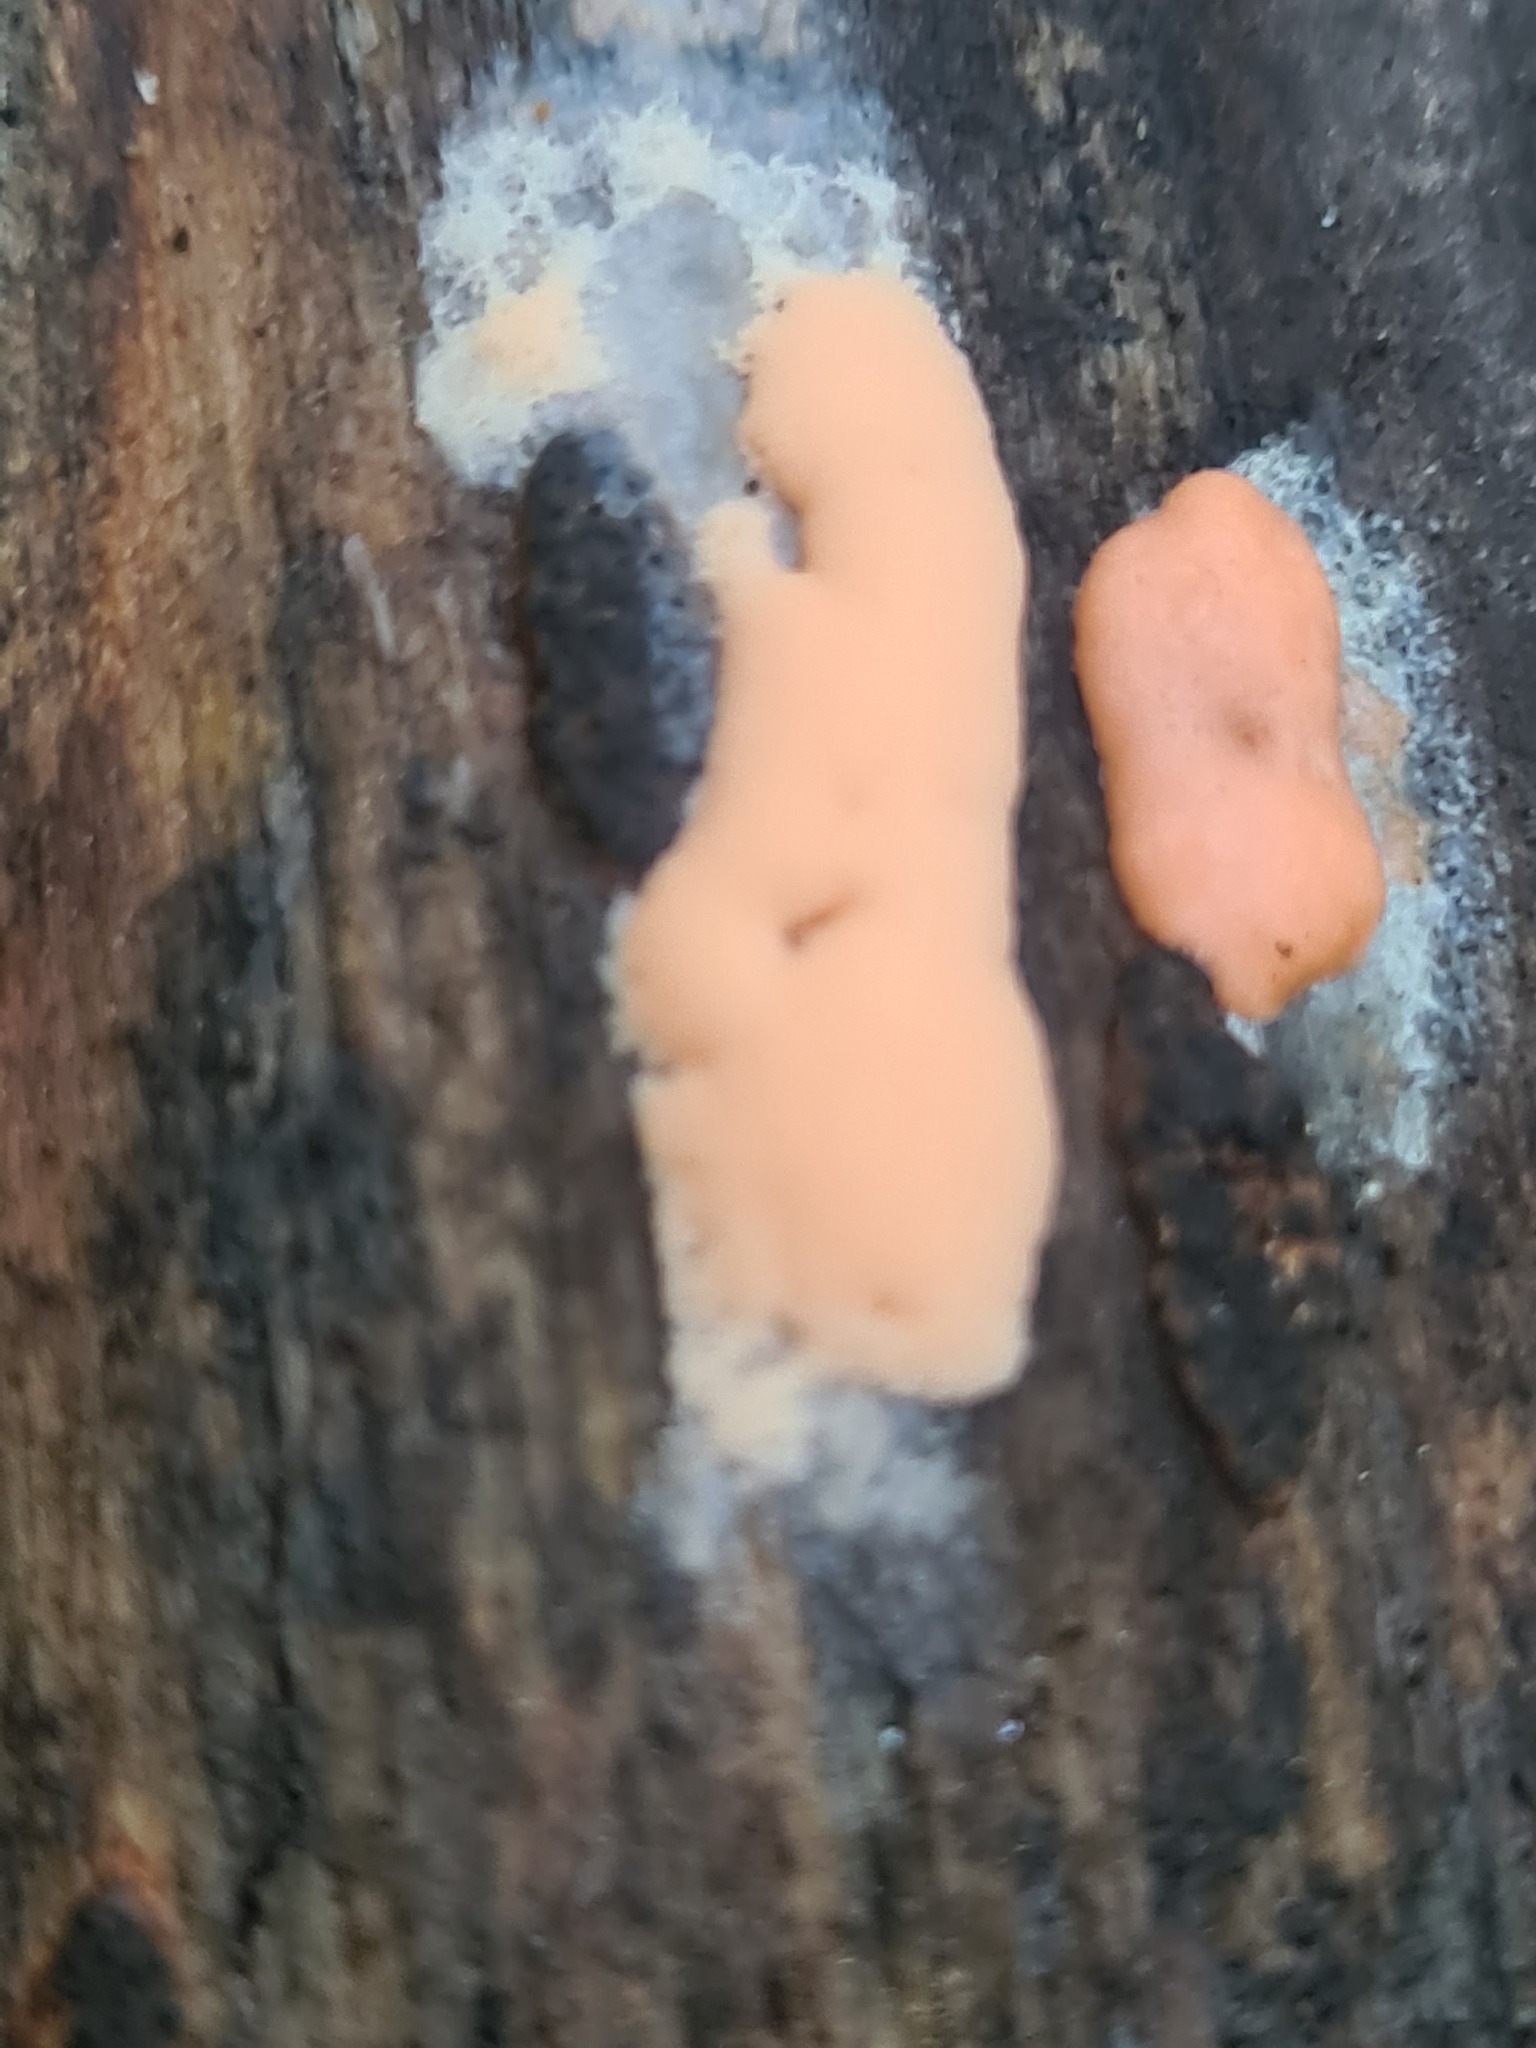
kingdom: Protozoa
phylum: Mycetozoa
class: Myxomycetes
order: Trichiales
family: Dictydiaethaliaceae
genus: Dictydiaethalium
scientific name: Dictydiaethalium plumbeum
